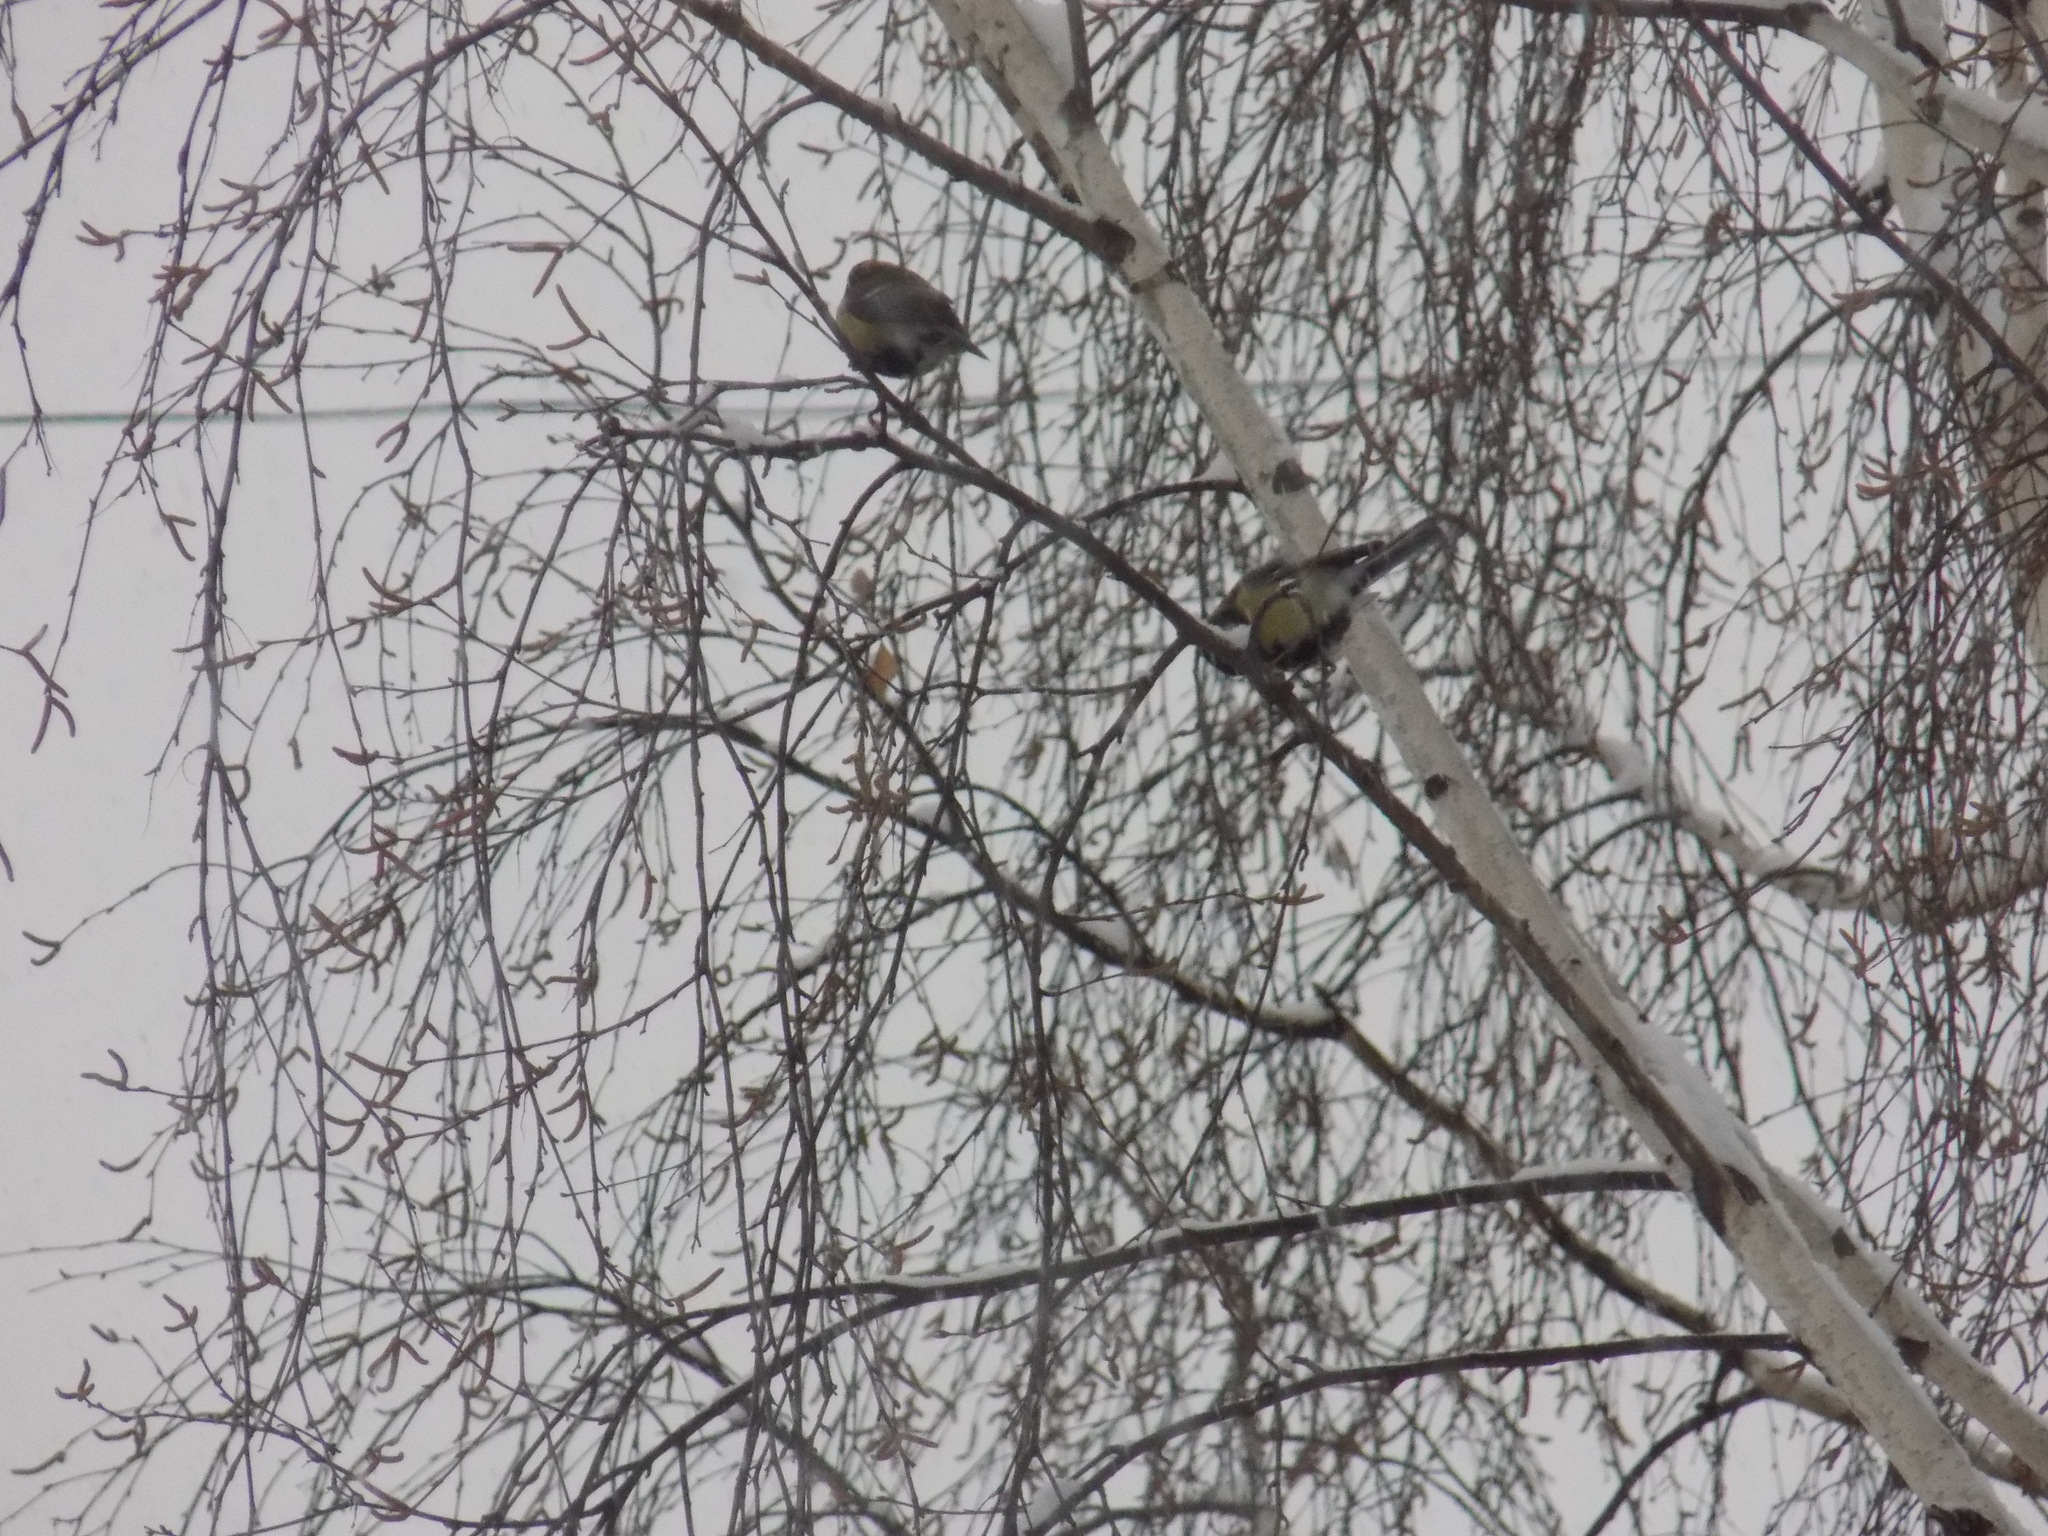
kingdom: Animalia
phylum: Chordata
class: Aves
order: Passeriformes
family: Paridae
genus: Parus
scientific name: Parus major
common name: Great tit
